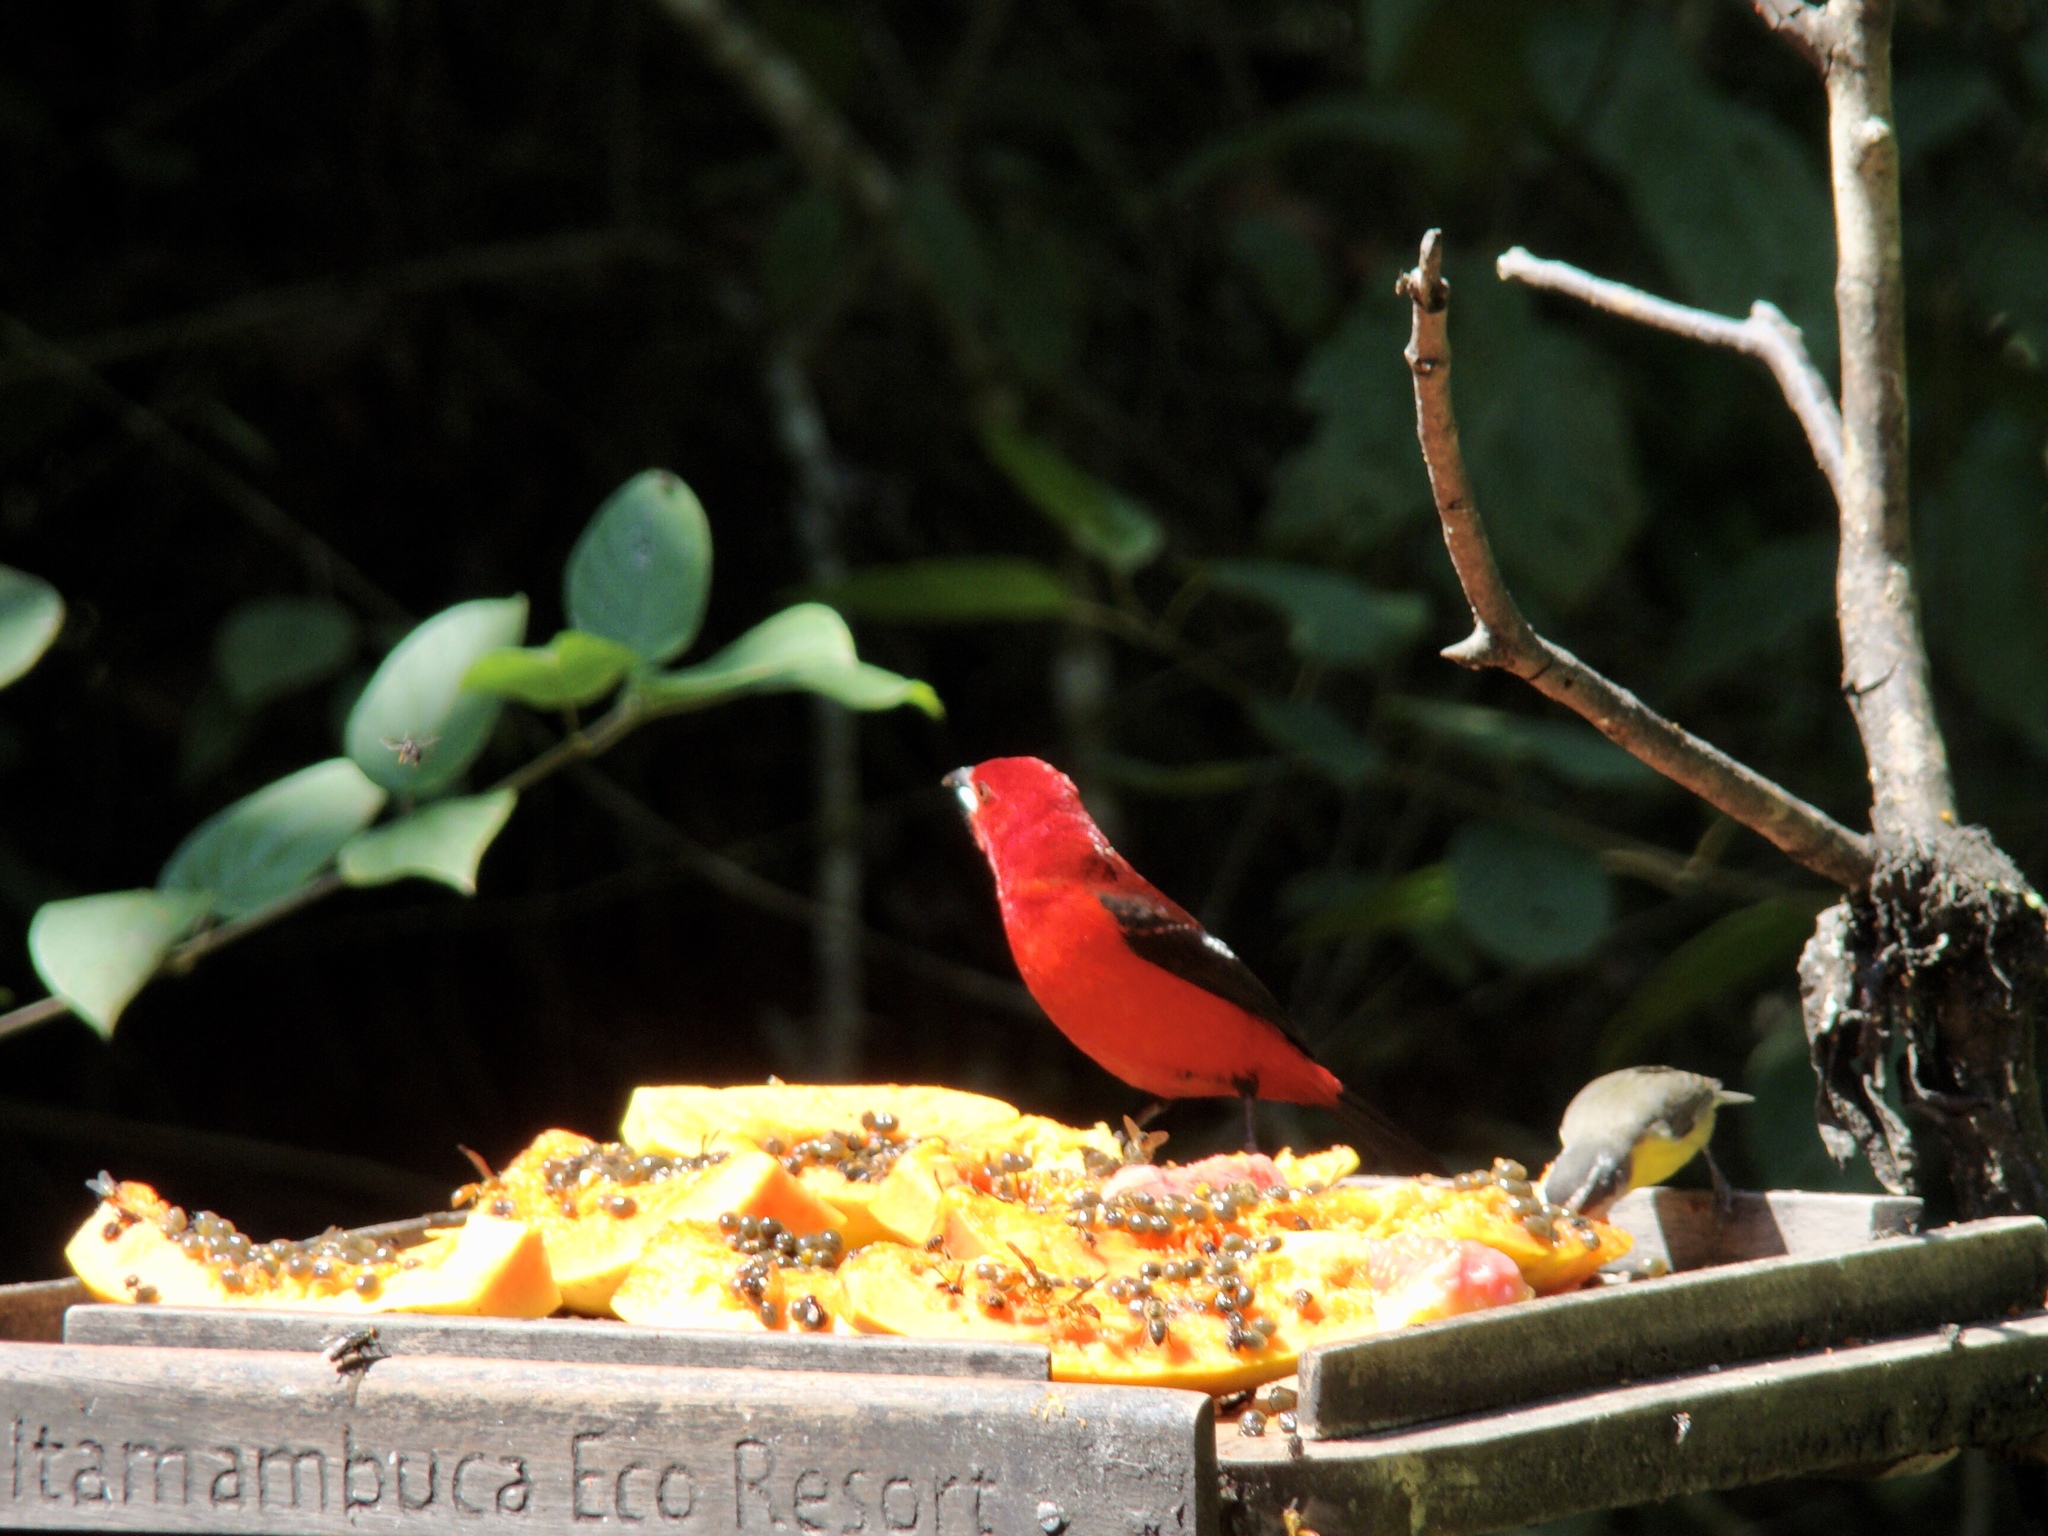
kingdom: Animalia
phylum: Chordata
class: Aves
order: Passeriformes
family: Thraupidae
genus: Ramphocelus
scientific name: Ramphocelus bresilia
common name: Brazilian tanager
